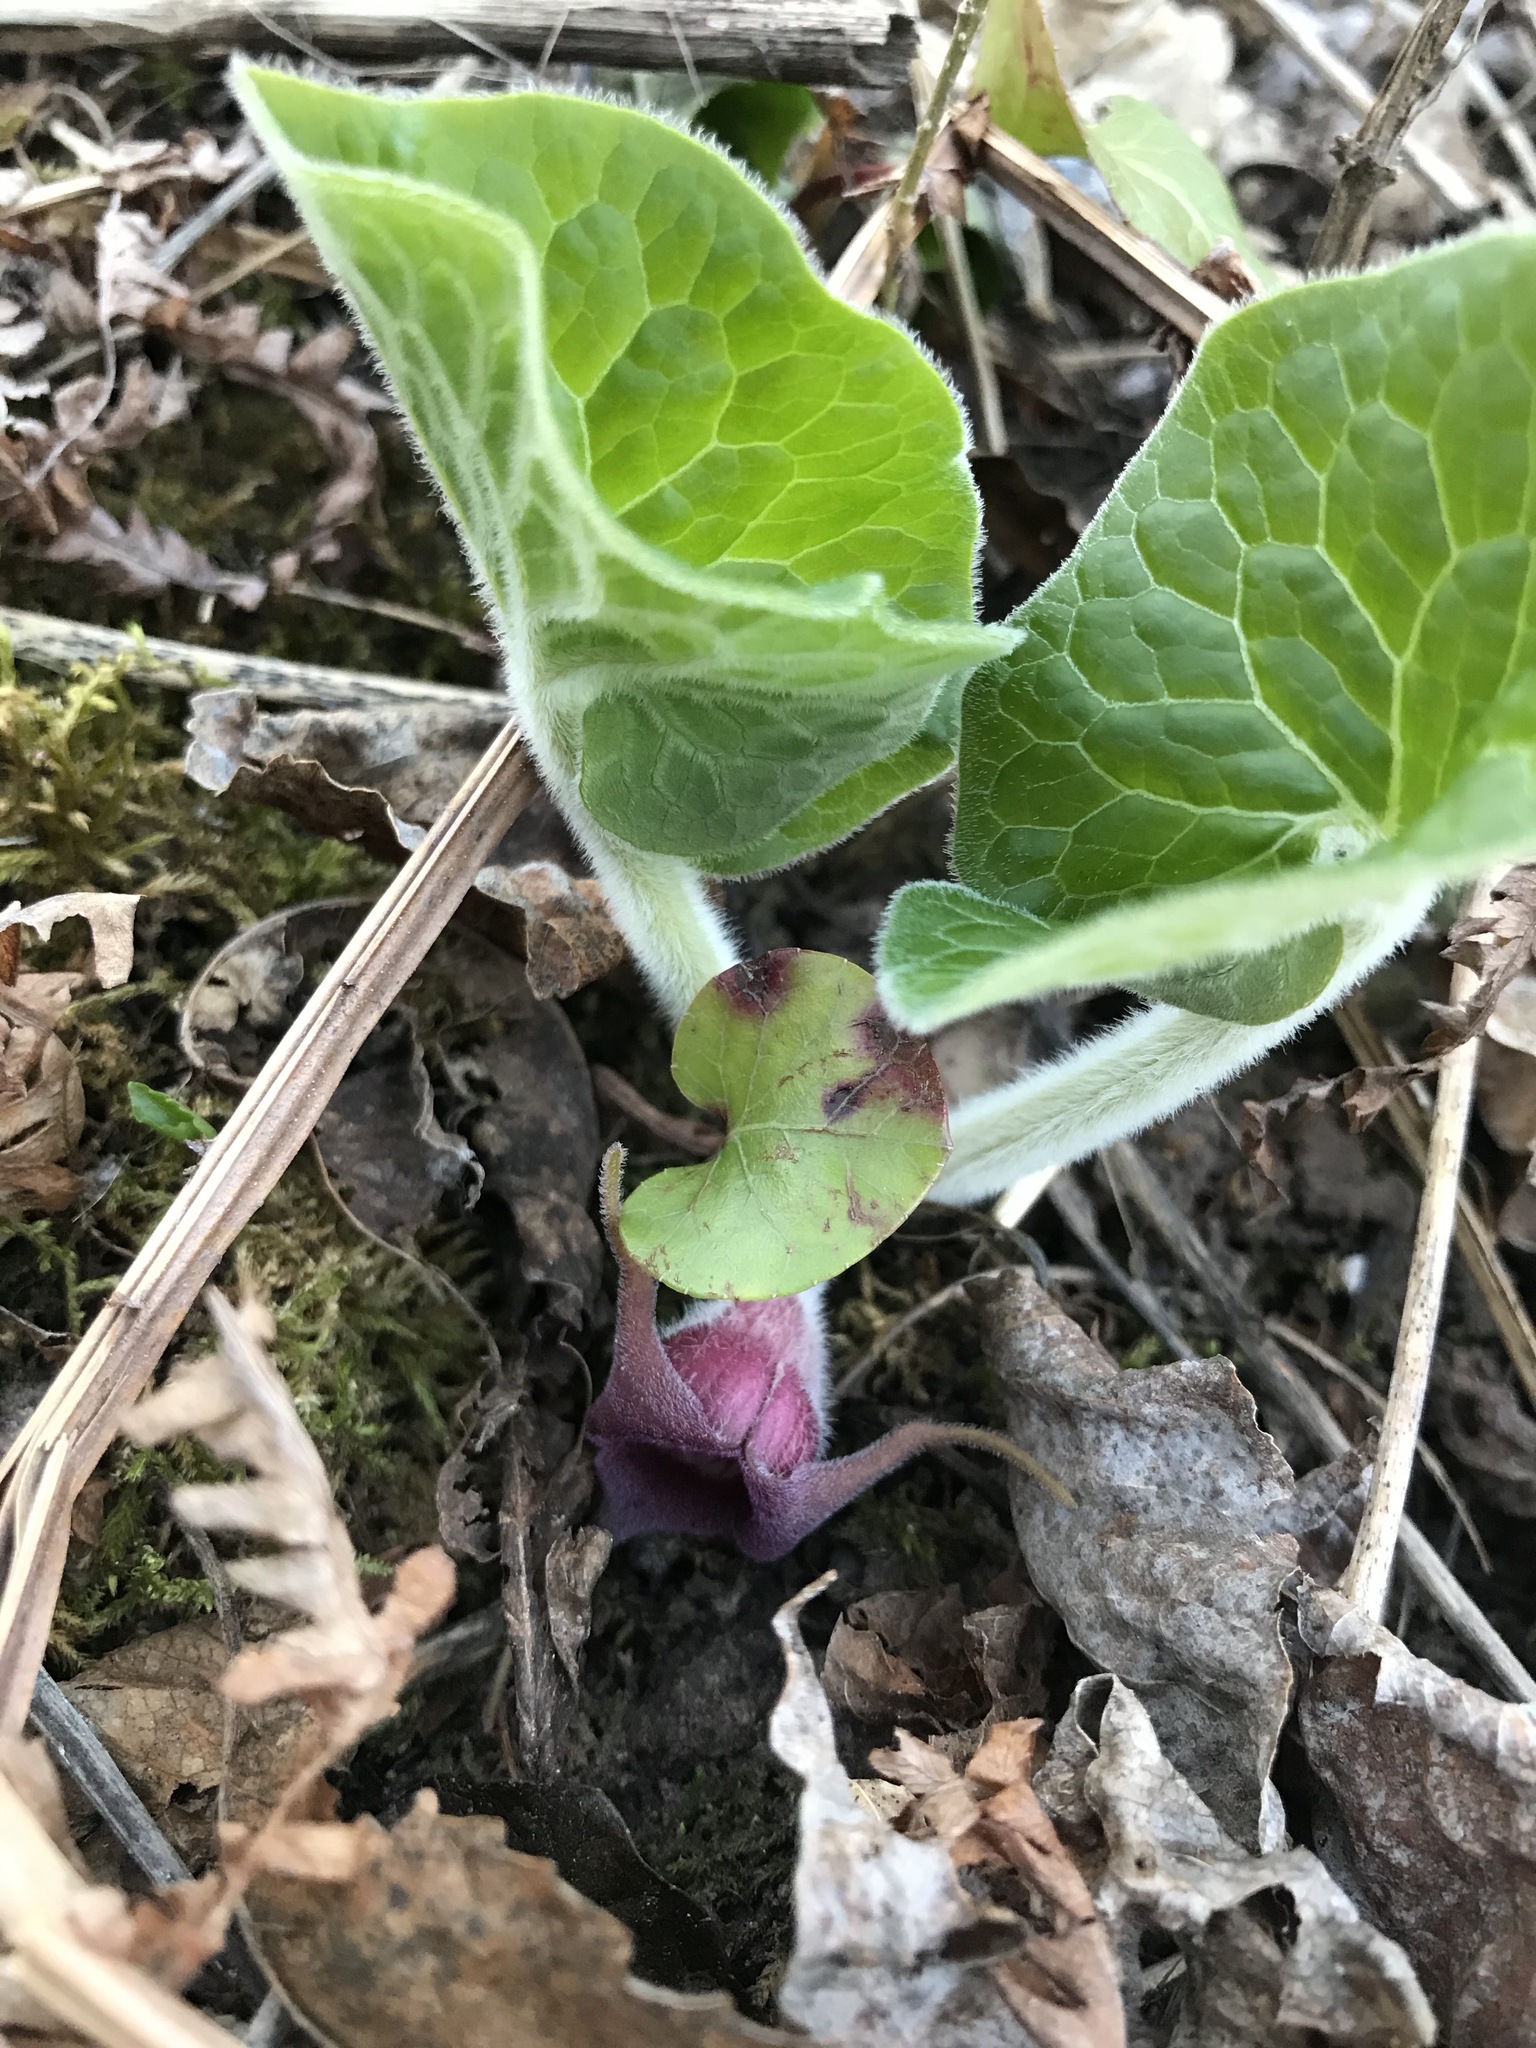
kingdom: Plantae
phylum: Tracheophyta
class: Magnoliopsida
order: Piperales
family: Aristolochiaceae
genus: Asarum
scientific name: Asarum canadense
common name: Wild ginger
